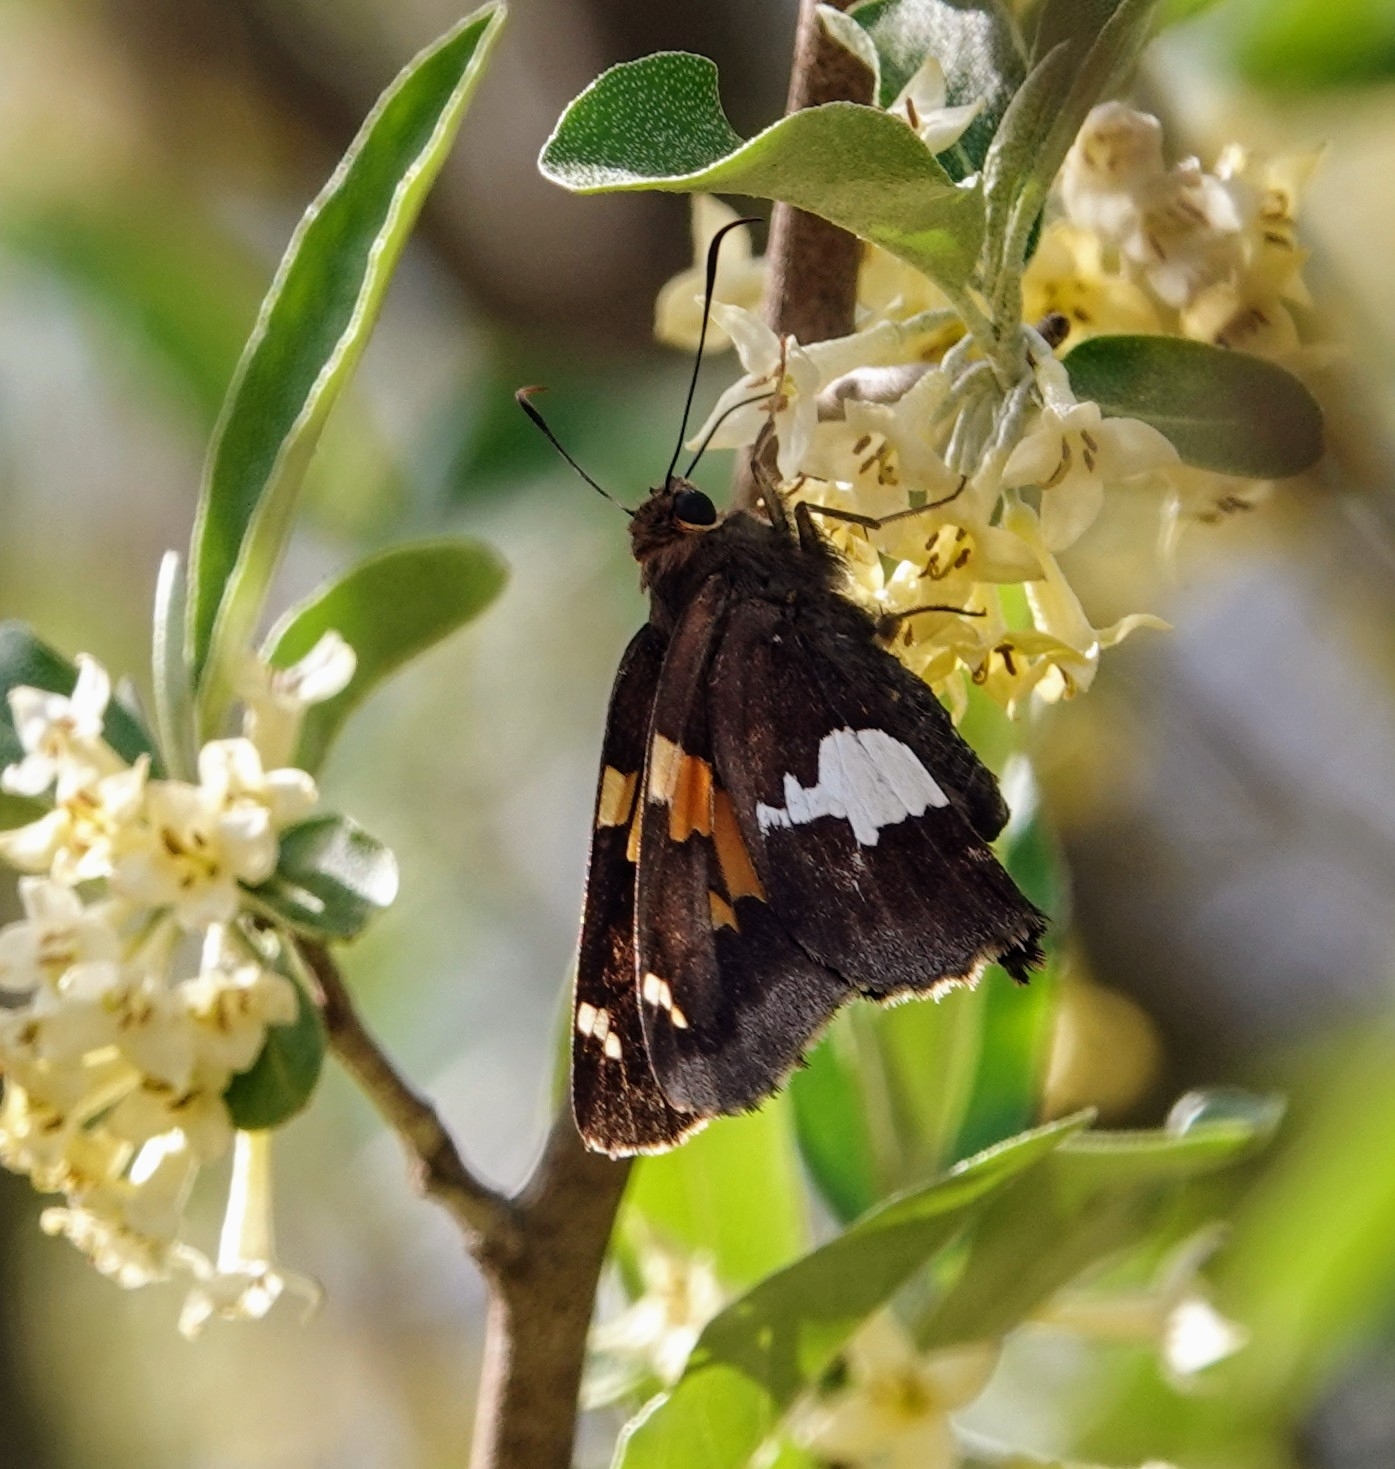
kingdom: Animalia
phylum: Arthropoda
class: Insecta
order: Lepidoptera
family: Hesperiidae
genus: Epargyreus
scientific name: Epargyreus clarus
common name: Silver-spotted skipper
